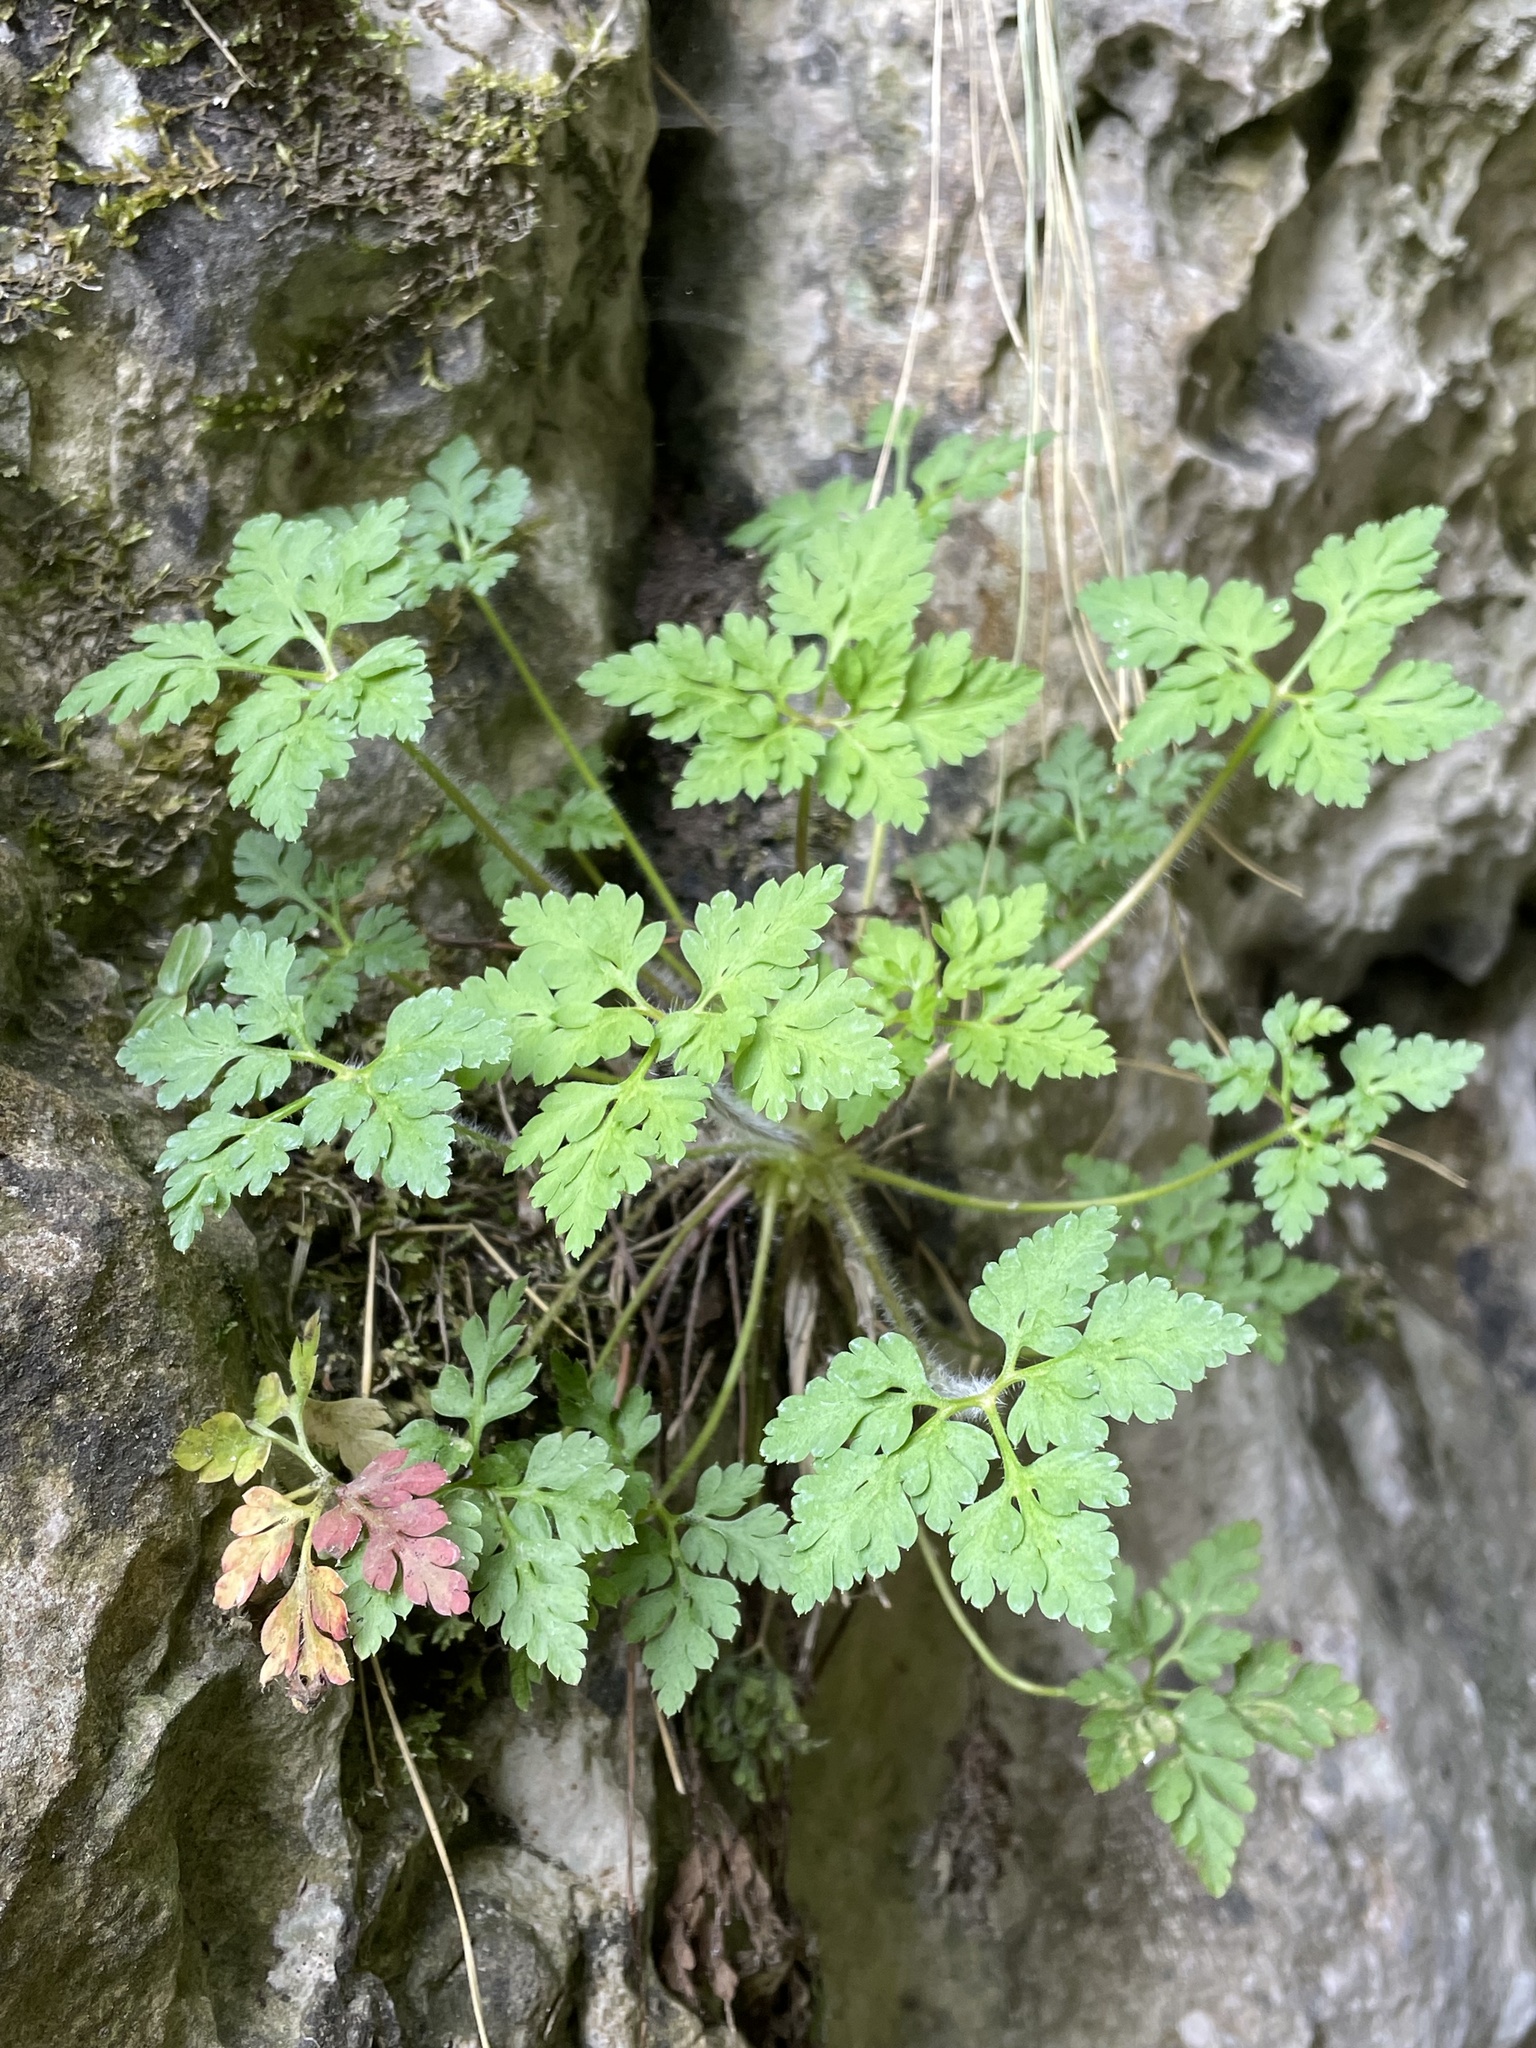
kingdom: Plantae
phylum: Tracheophyta
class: Magnoliopsida
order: Geraniales
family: Geraniaceae
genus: Geranium
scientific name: Geranium robertianum
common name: Herb-robert
